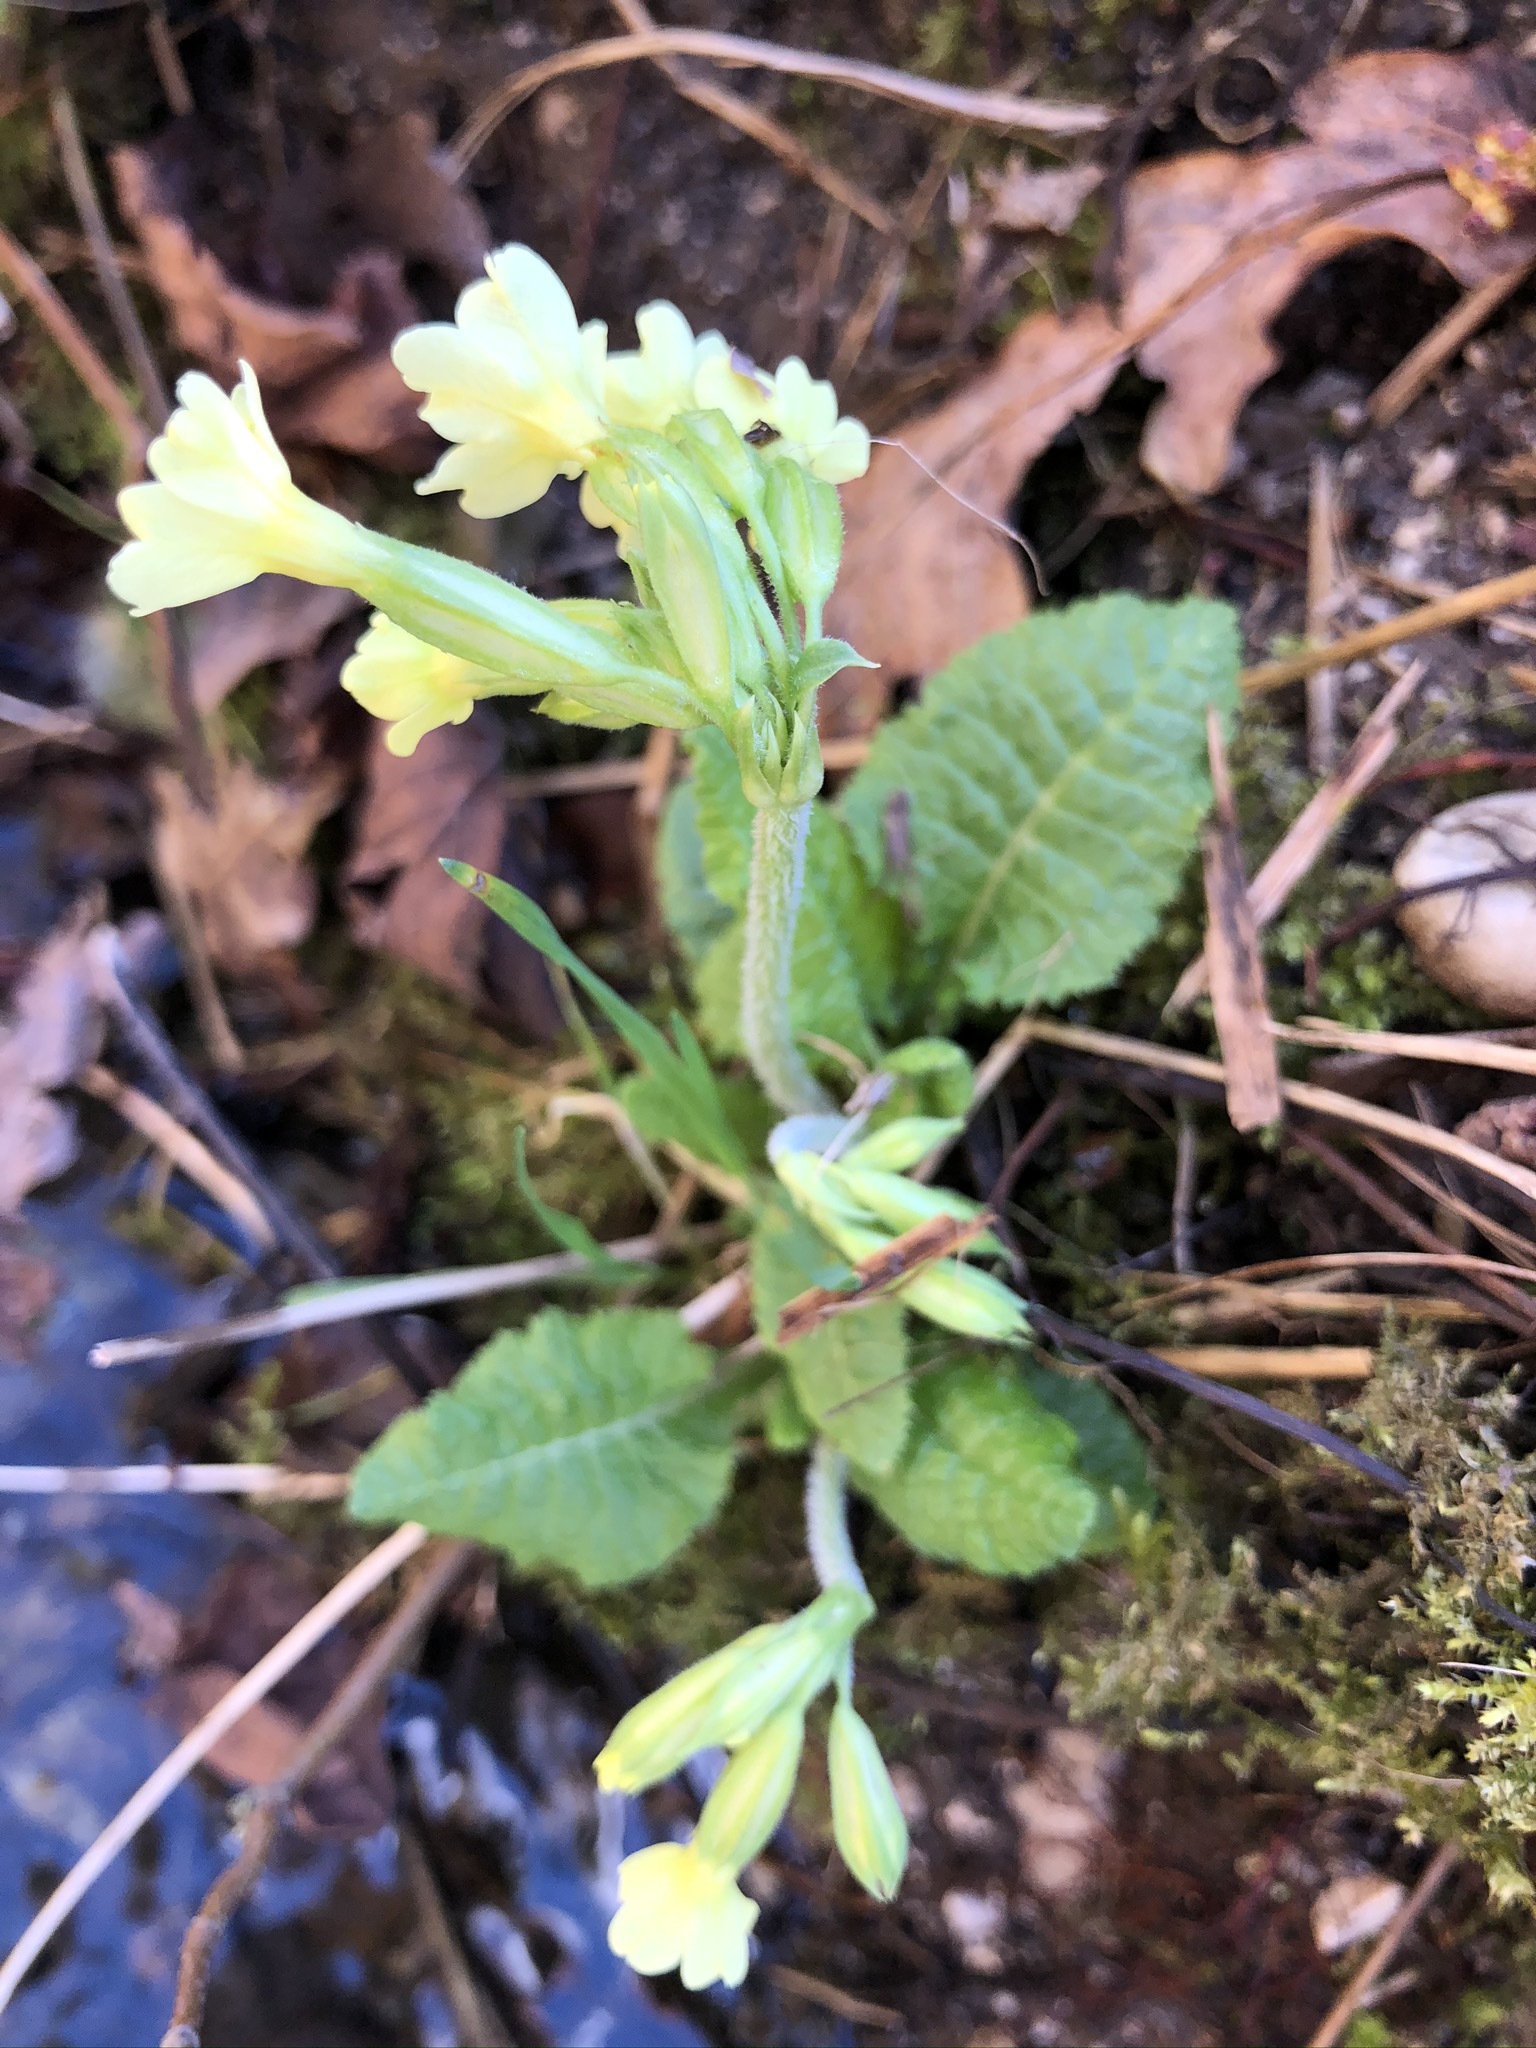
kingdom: Plantae
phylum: Tracheophyta
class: Magnoliopsida
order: Ericales
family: Primulaceae
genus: Primula
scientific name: Primula elatior
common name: Oxlip
